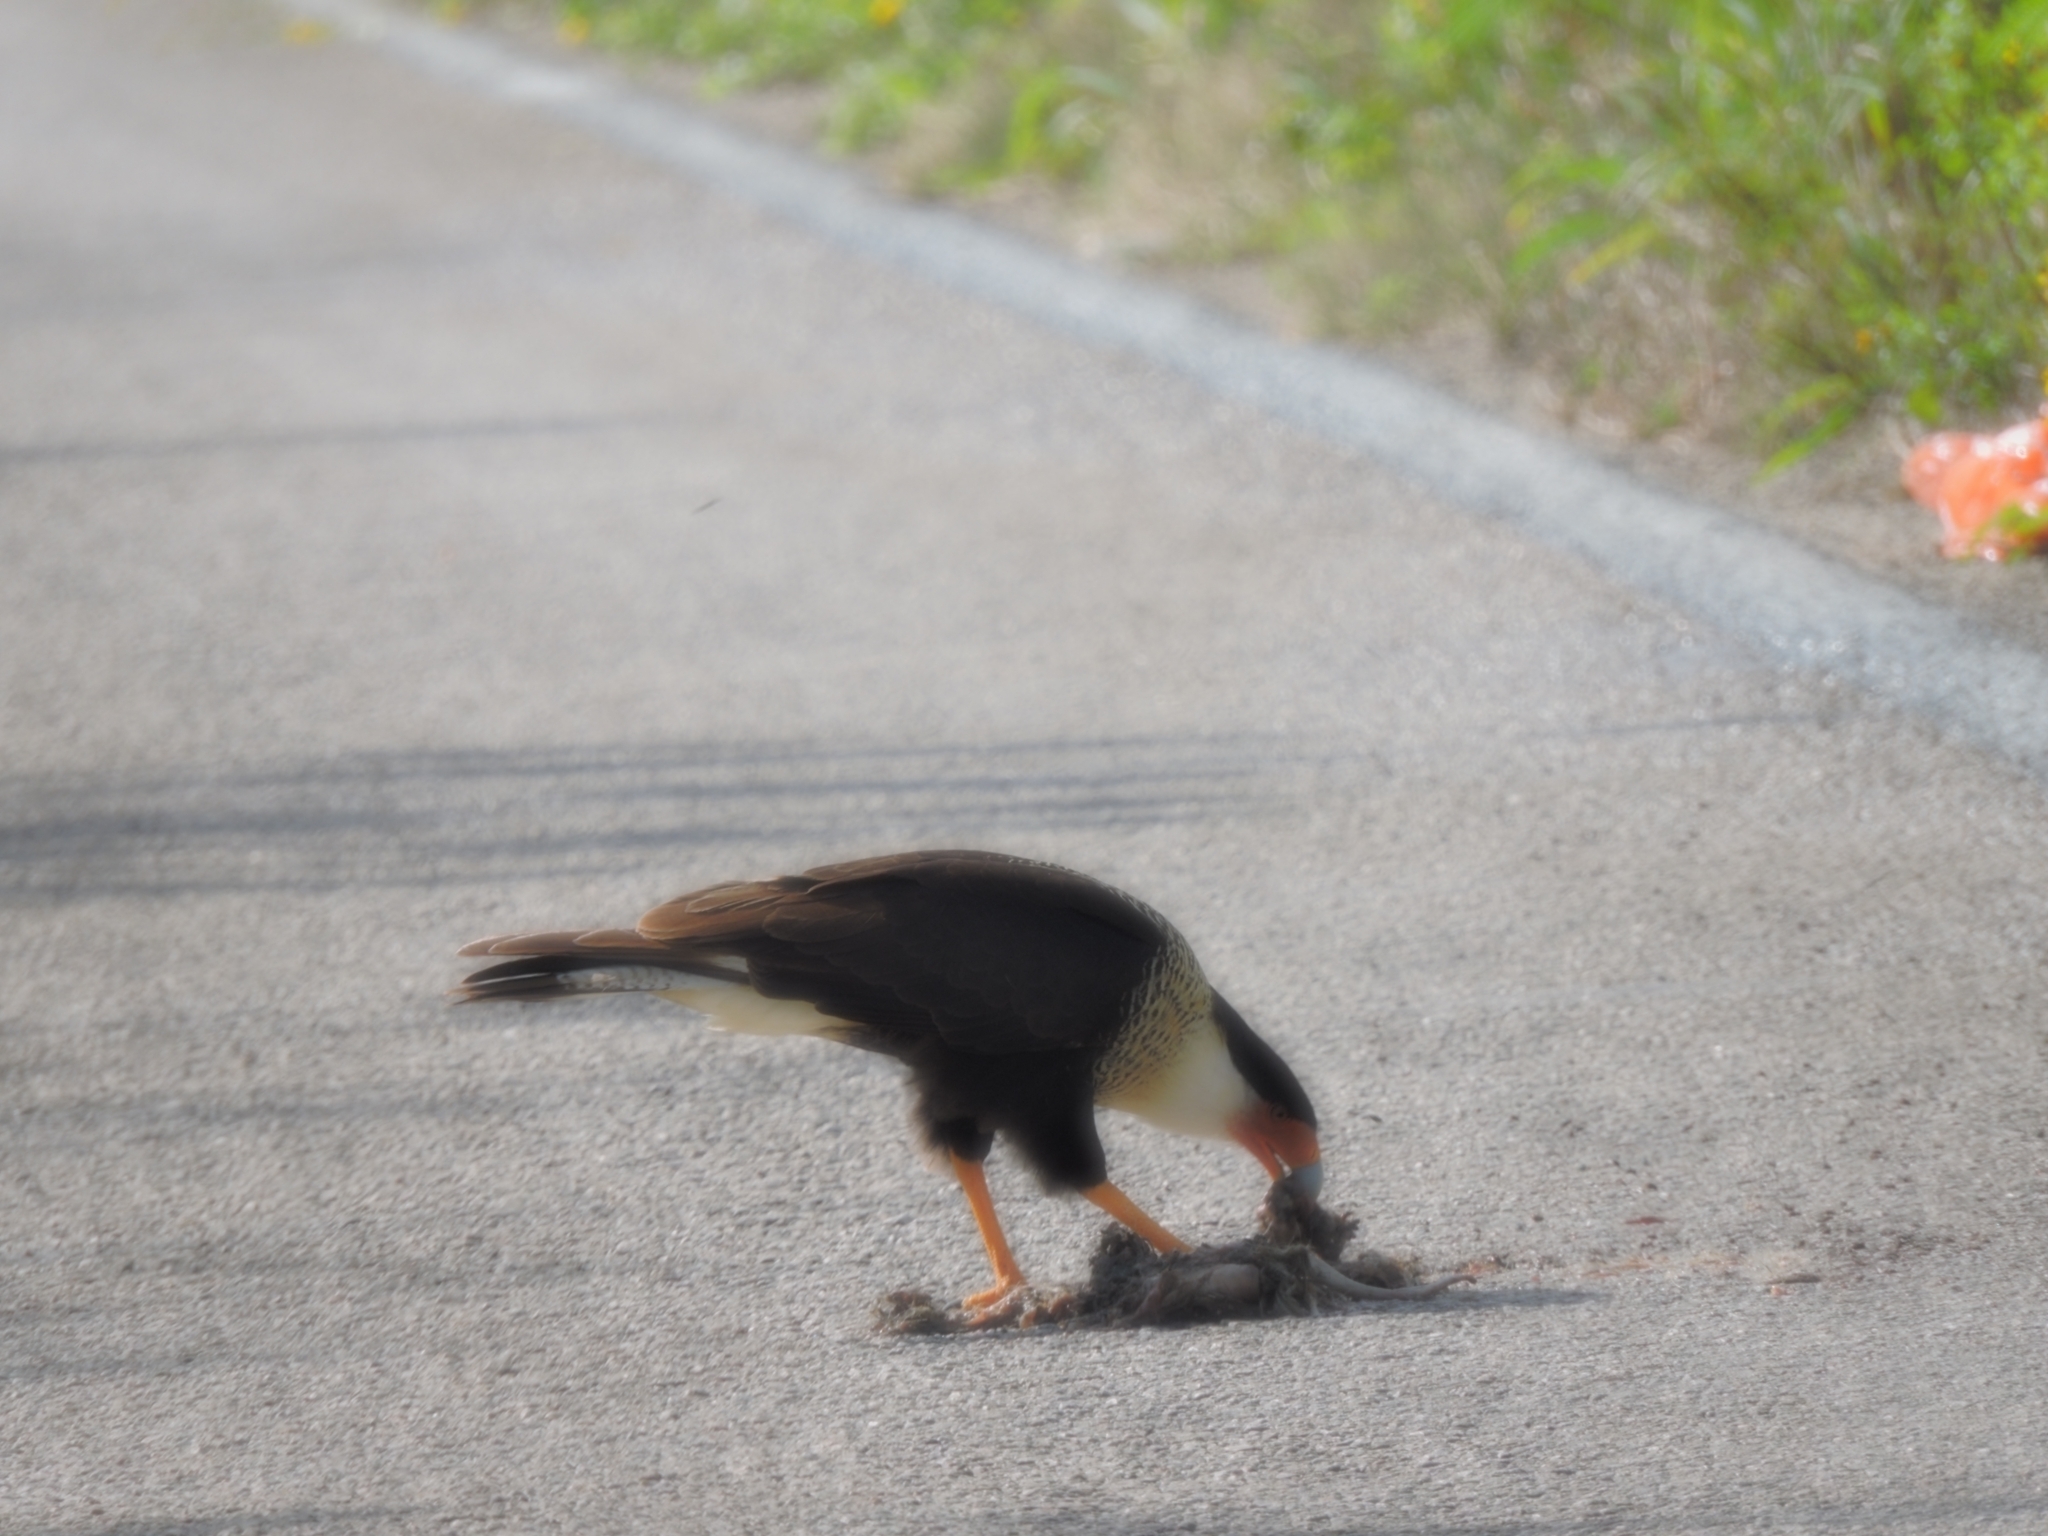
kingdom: Animalia
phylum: Chordata
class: Aves
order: Falconiformes
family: Falconidae
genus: Caracara
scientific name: Caracara plancus
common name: Southern caracara
